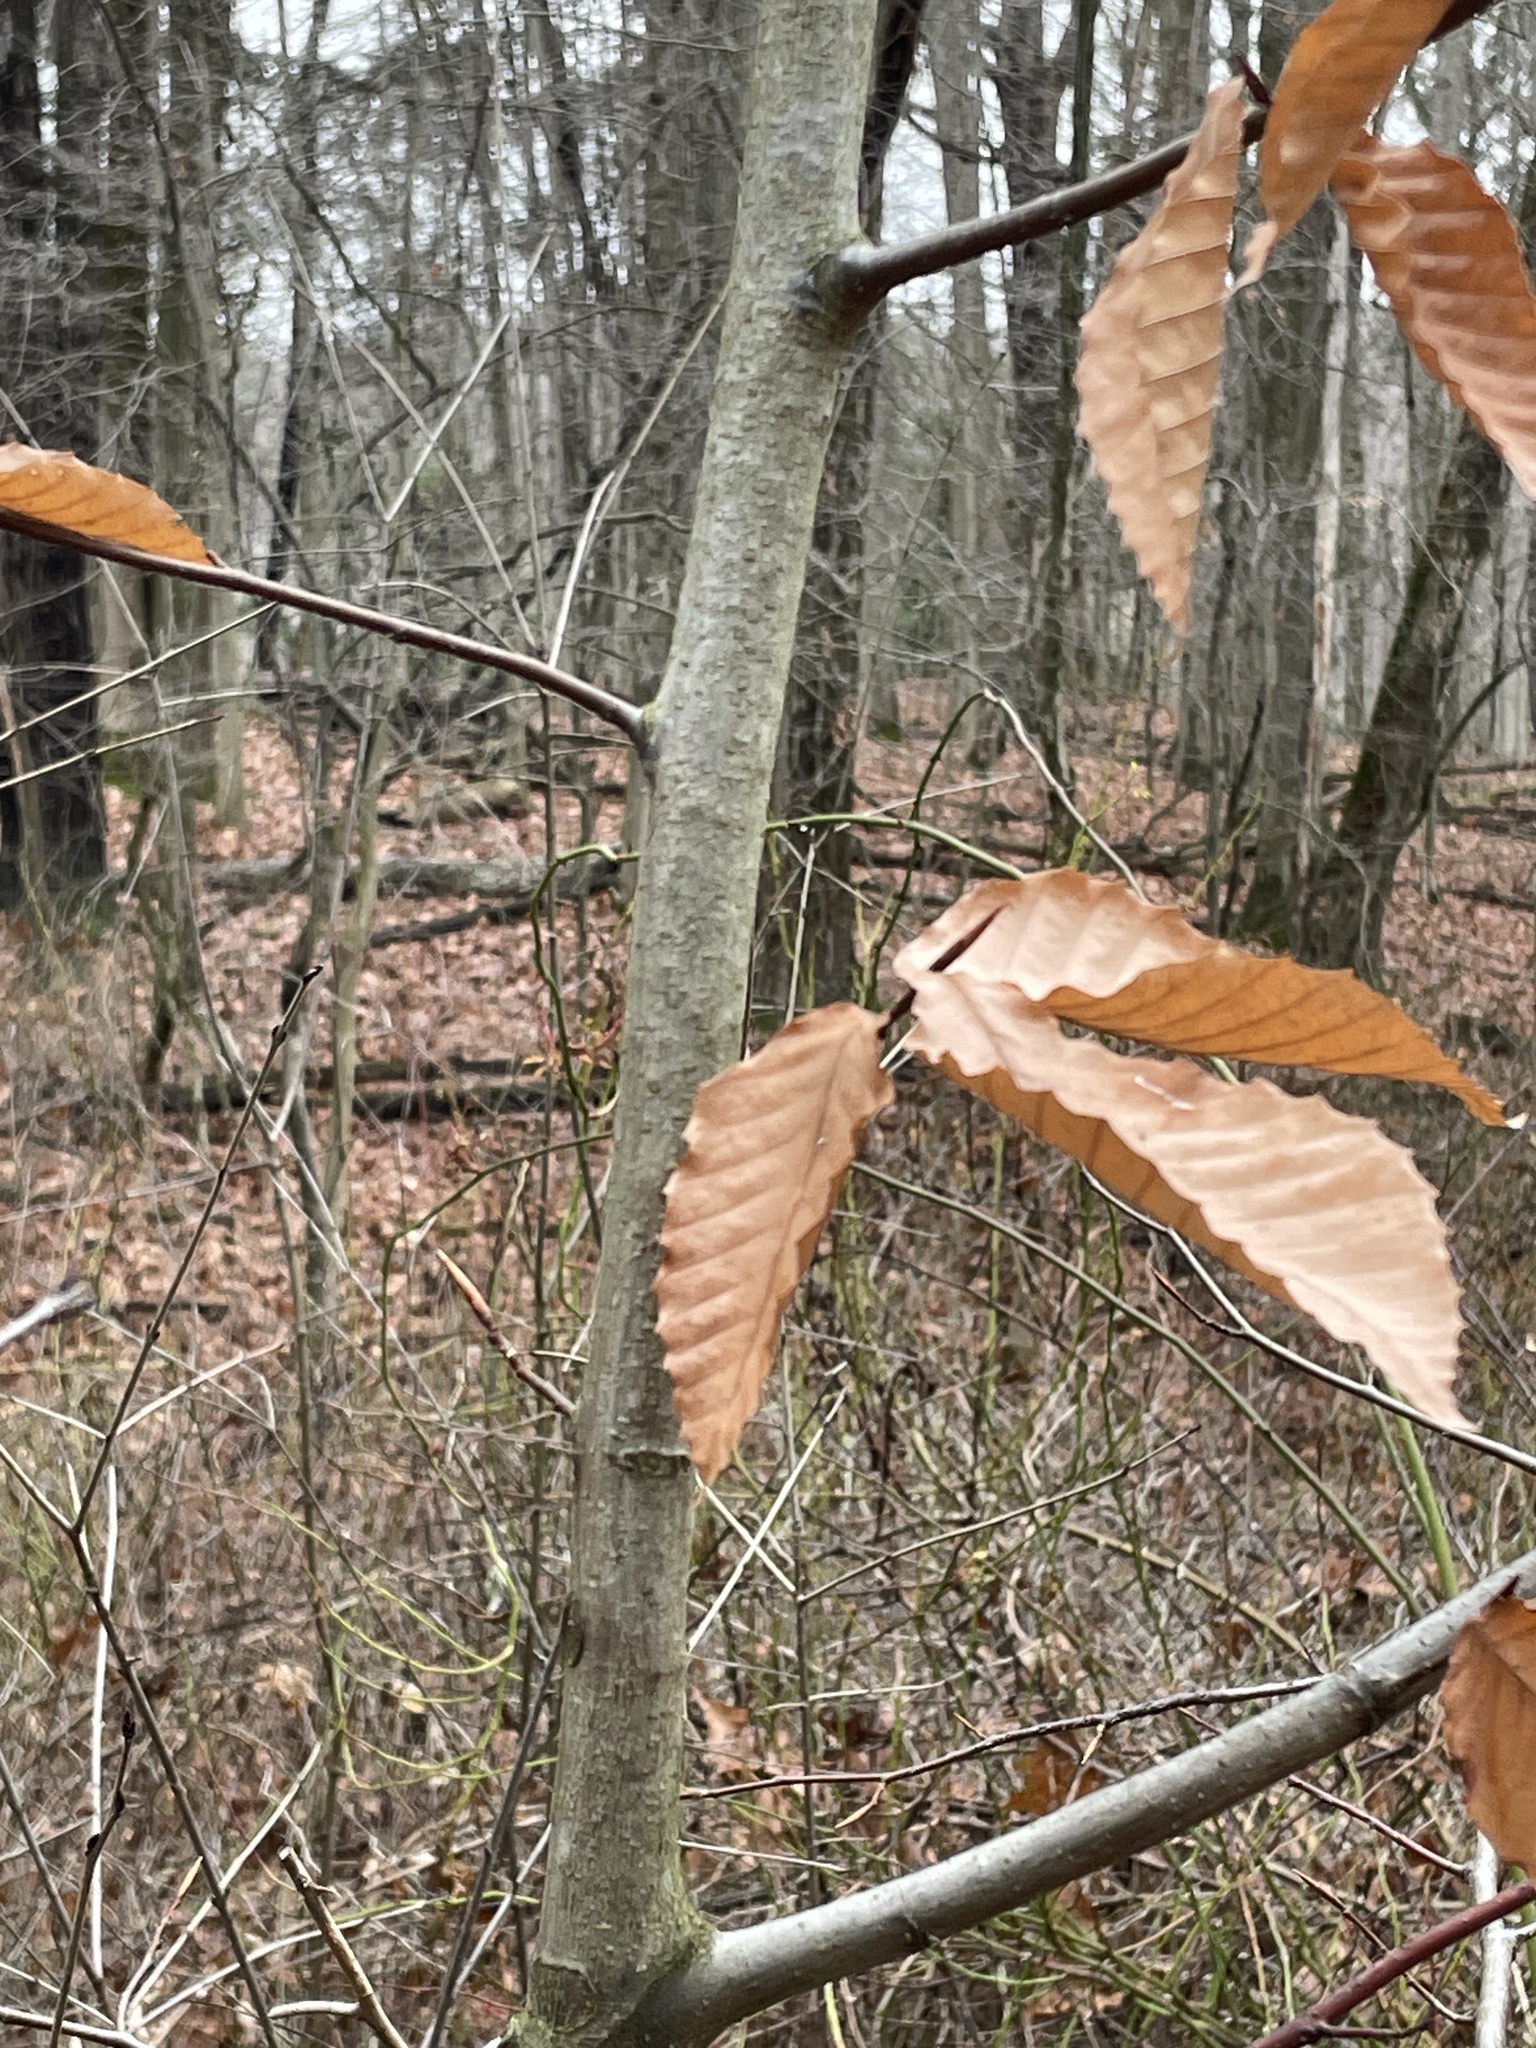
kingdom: Plantae
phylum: Tracheophyta
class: Magnoliopsida
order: Fagales
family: Fagaceae
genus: Fagus
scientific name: Fagus grandifolia
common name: American beech
